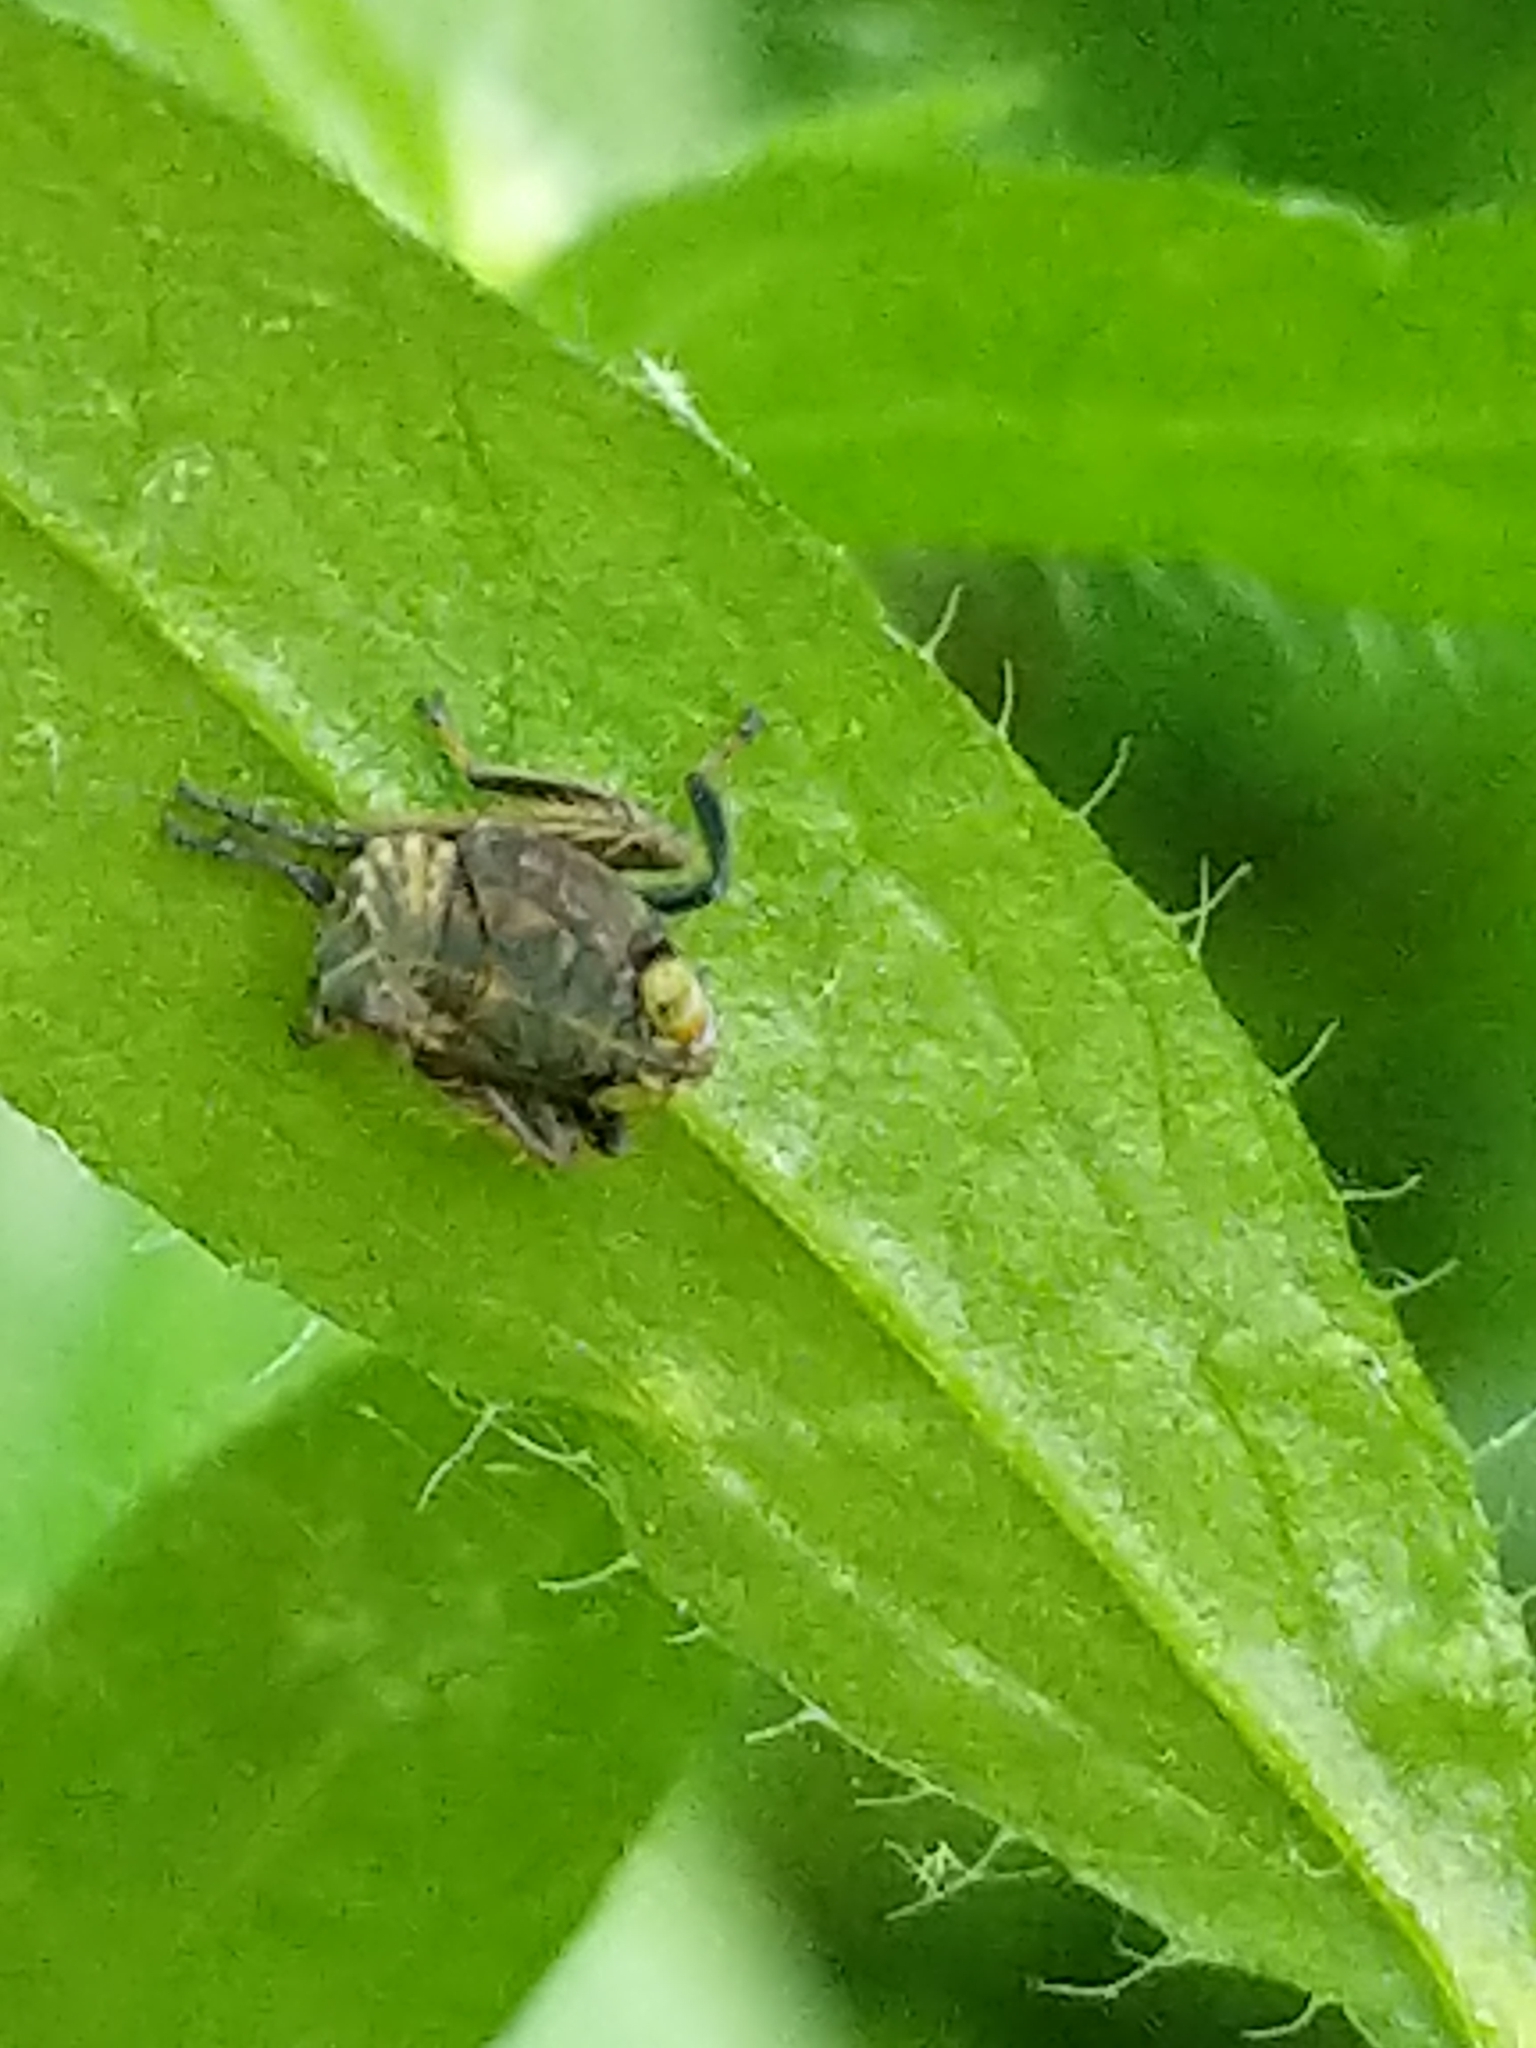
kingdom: Animalia
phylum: Arthropoda
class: Insecta
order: Hemiptera
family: Cicadellidae
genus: Jikradia
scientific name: Jikradia olitoria
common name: Coppery leafhopper
